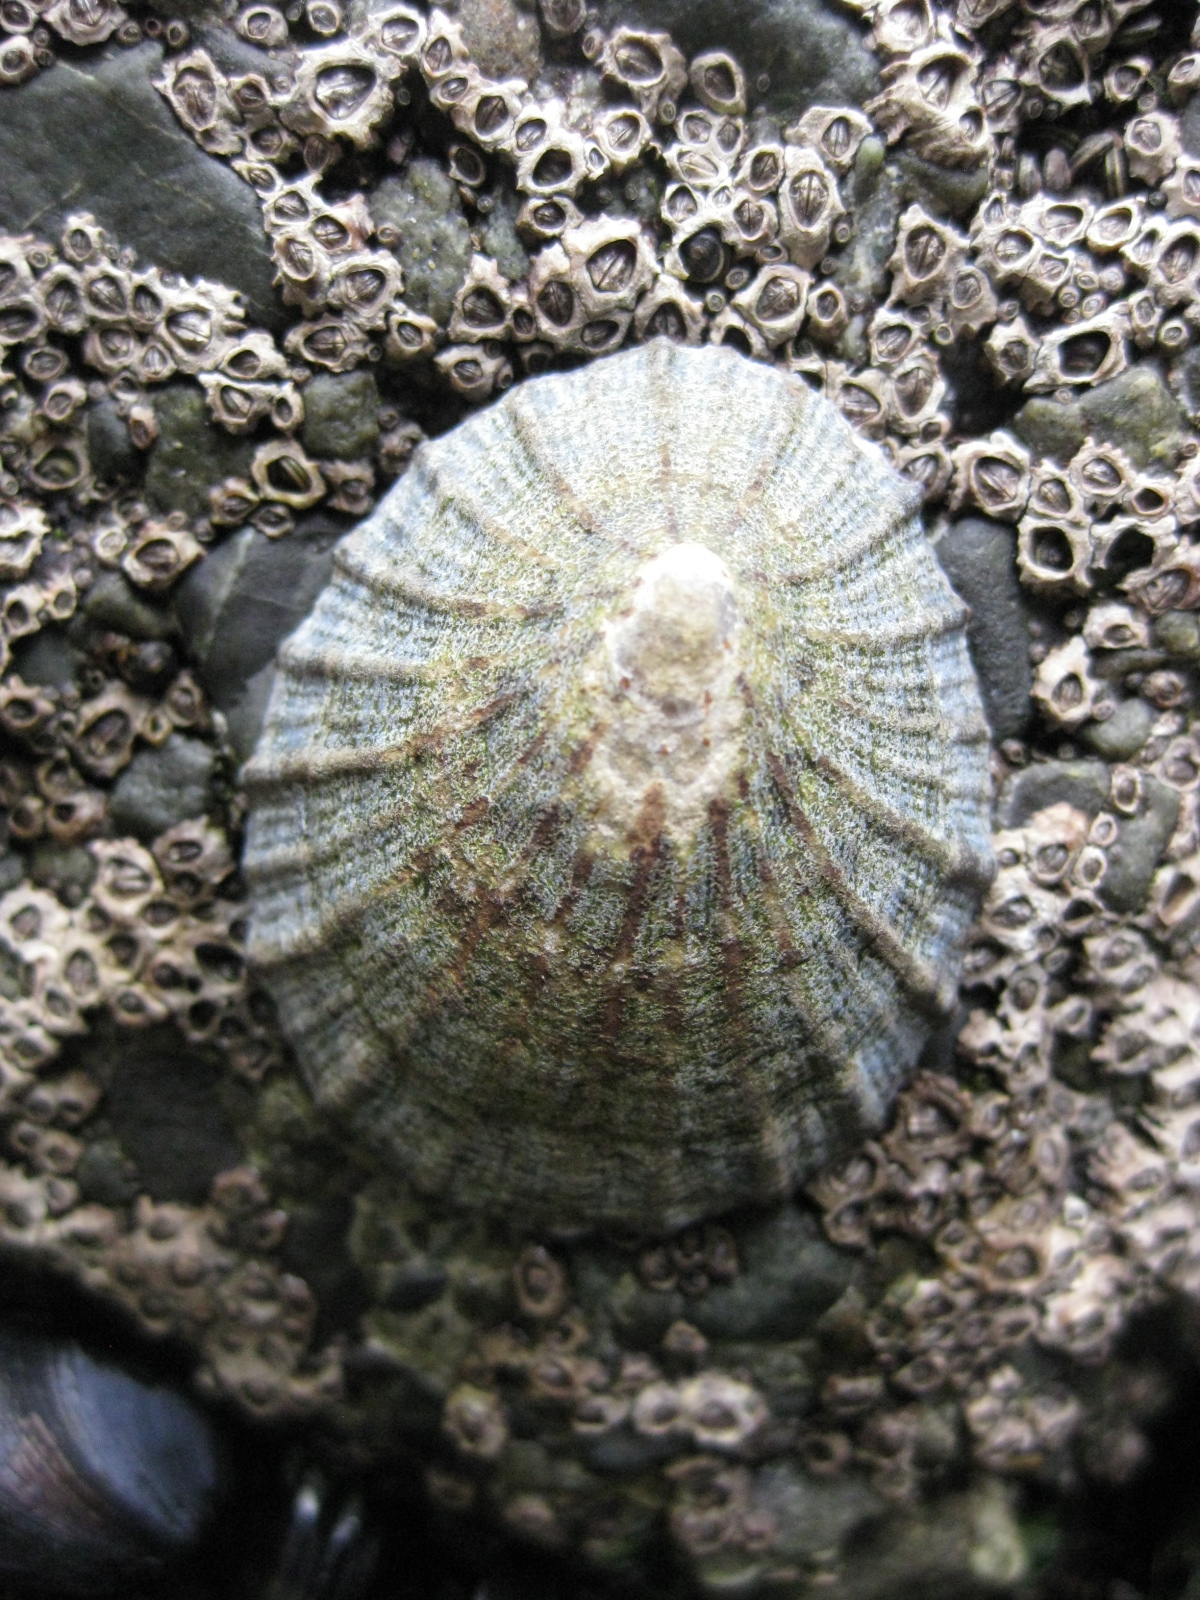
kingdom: Animalia
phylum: Mollusca
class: Gastropoda
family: Nacellidae
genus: Cellana
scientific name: Cellana radians
